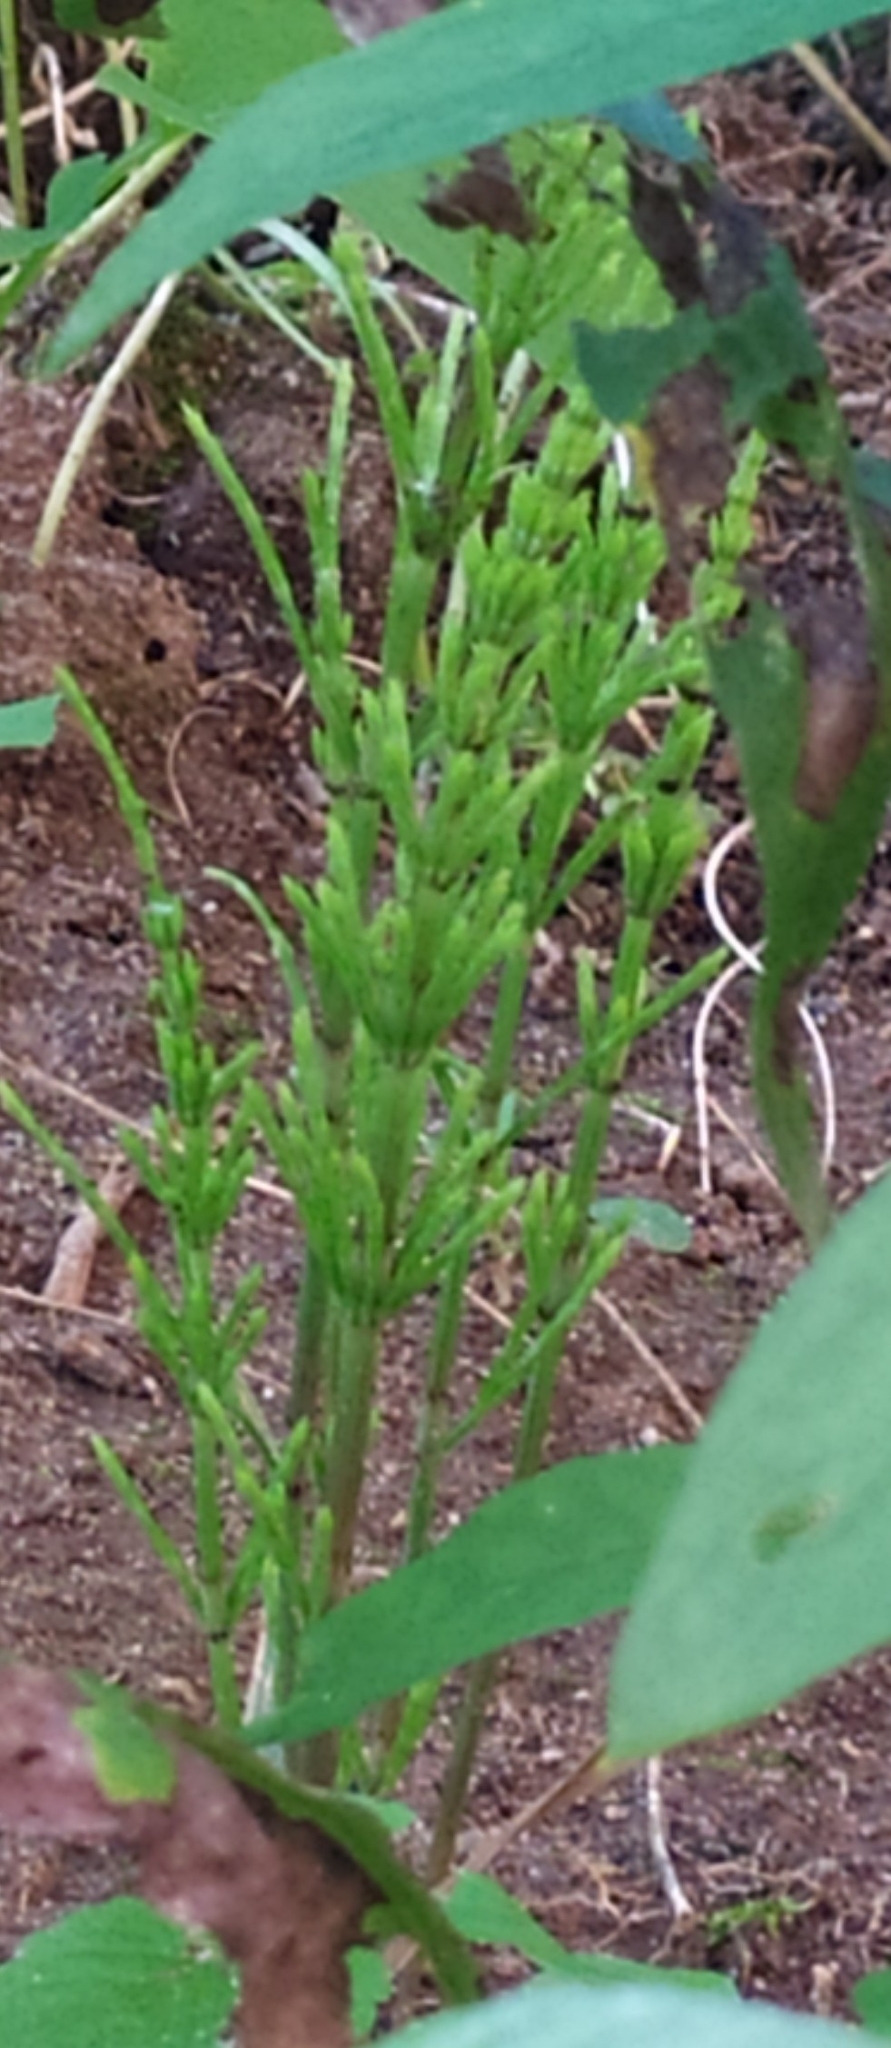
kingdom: Plantae
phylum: Tracheophyta
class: Polypodiopsida
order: Equisetales
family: Equisetaceae
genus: Equisetum
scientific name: Equisetum arvense
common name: Field horsetail
